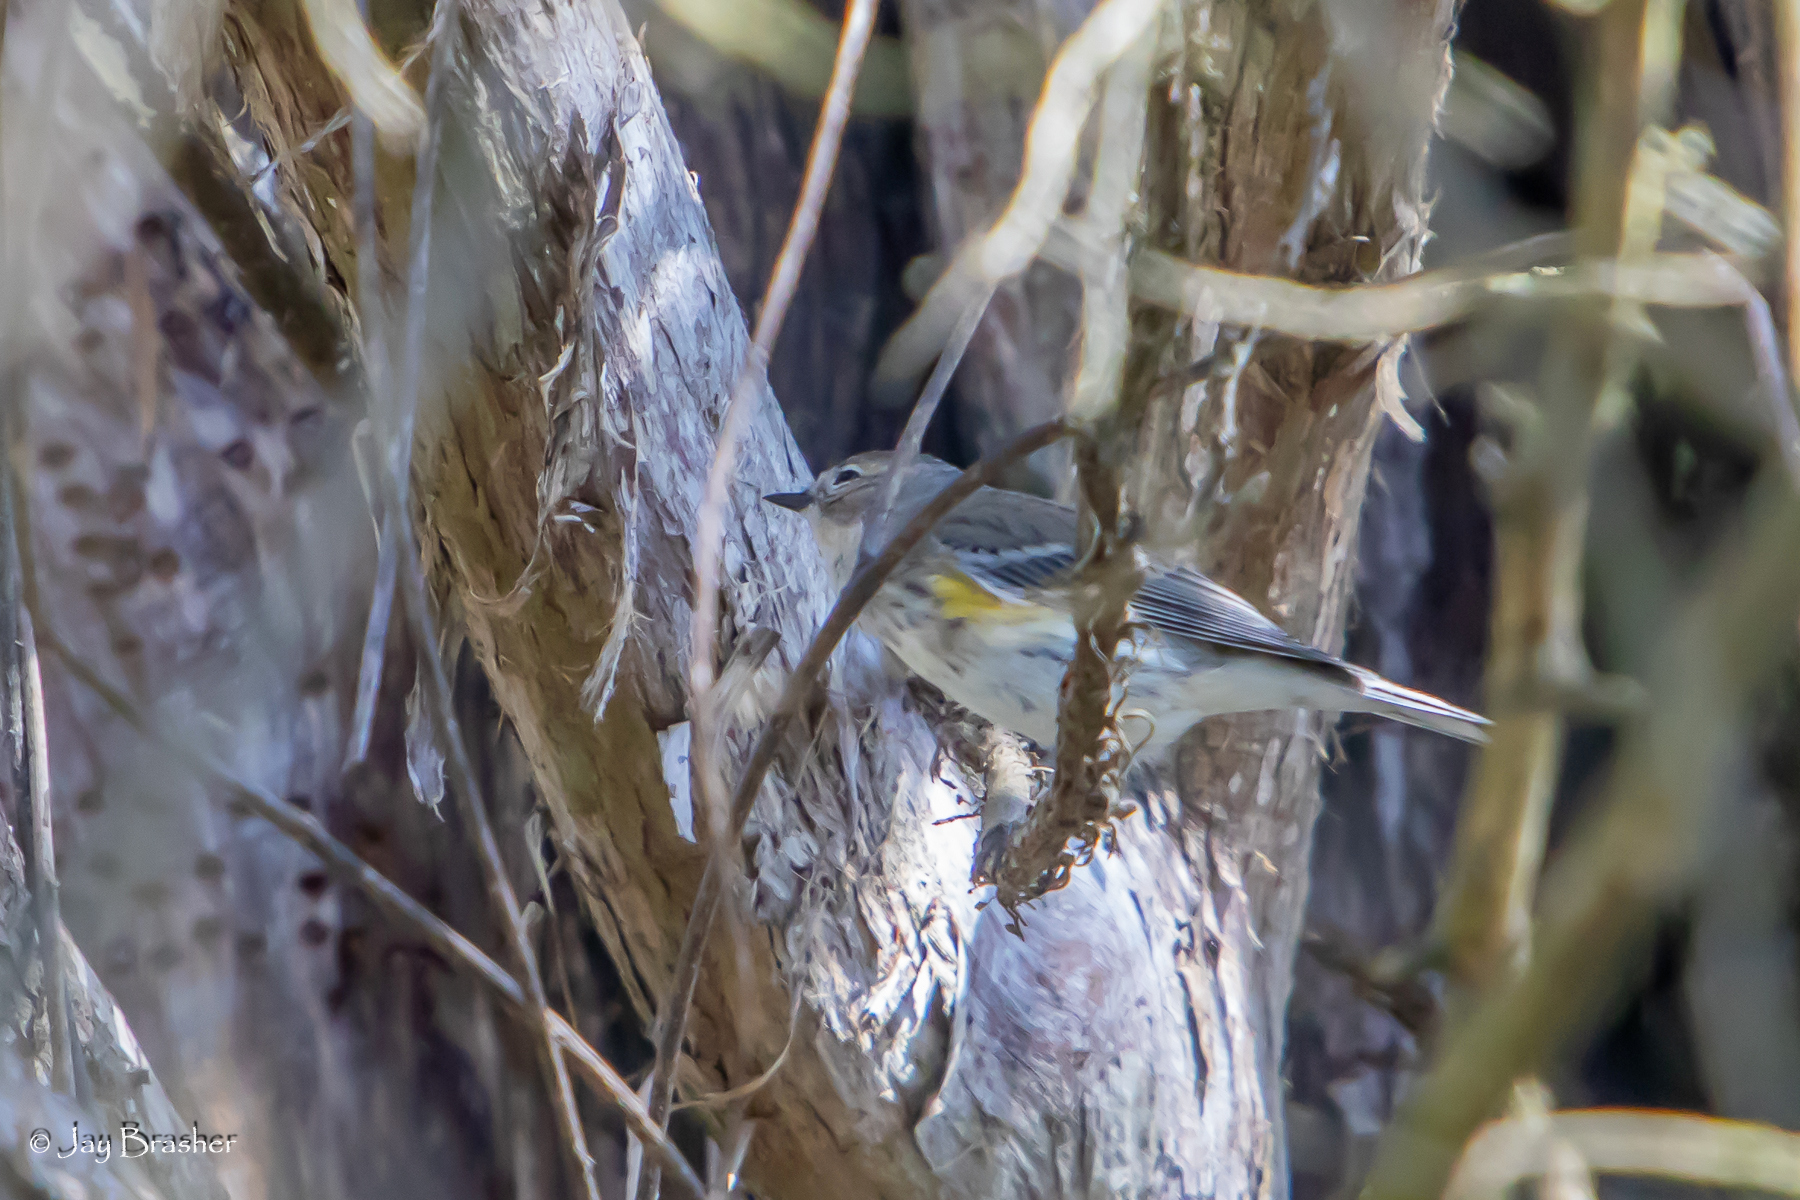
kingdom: Animalia
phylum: Chordata
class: Aves
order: Passeriformes
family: Parulidae
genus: Setophaga
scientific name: Setophaga coronata
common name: Myrtle warbler
